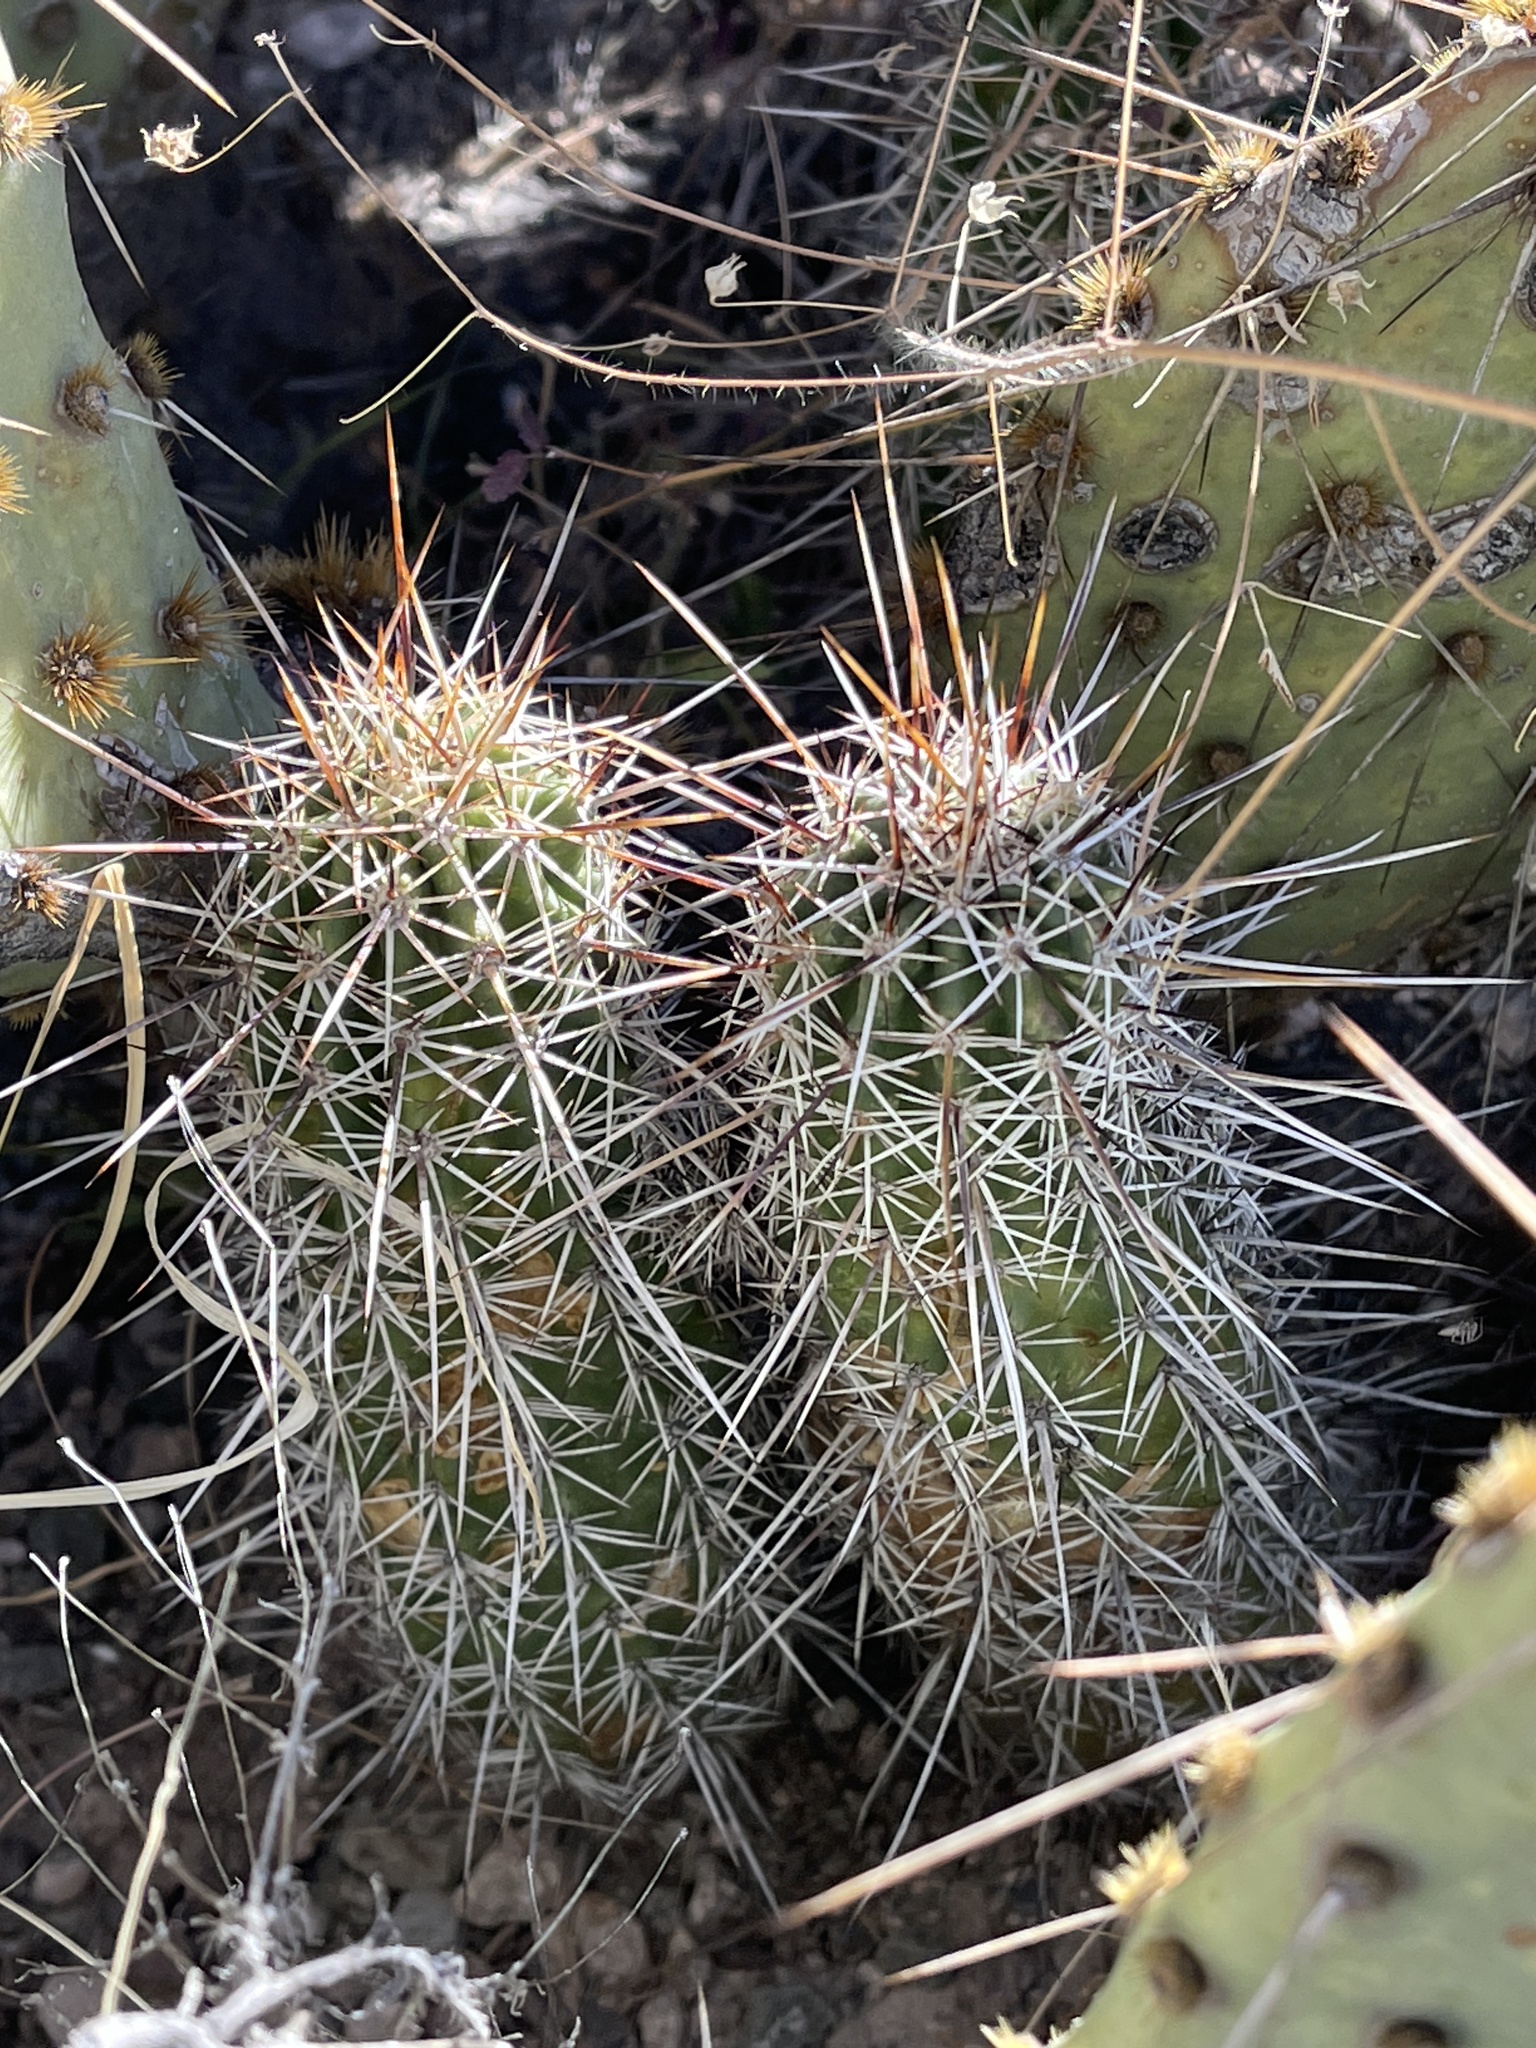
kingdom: Plantae
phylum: Tracheophyta
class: Magnoliopsida
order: Caryophyllales
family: Cactaceae
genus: Echinocereus
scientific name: Echinocereus fasciculatus
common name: Bundle hedgehog
